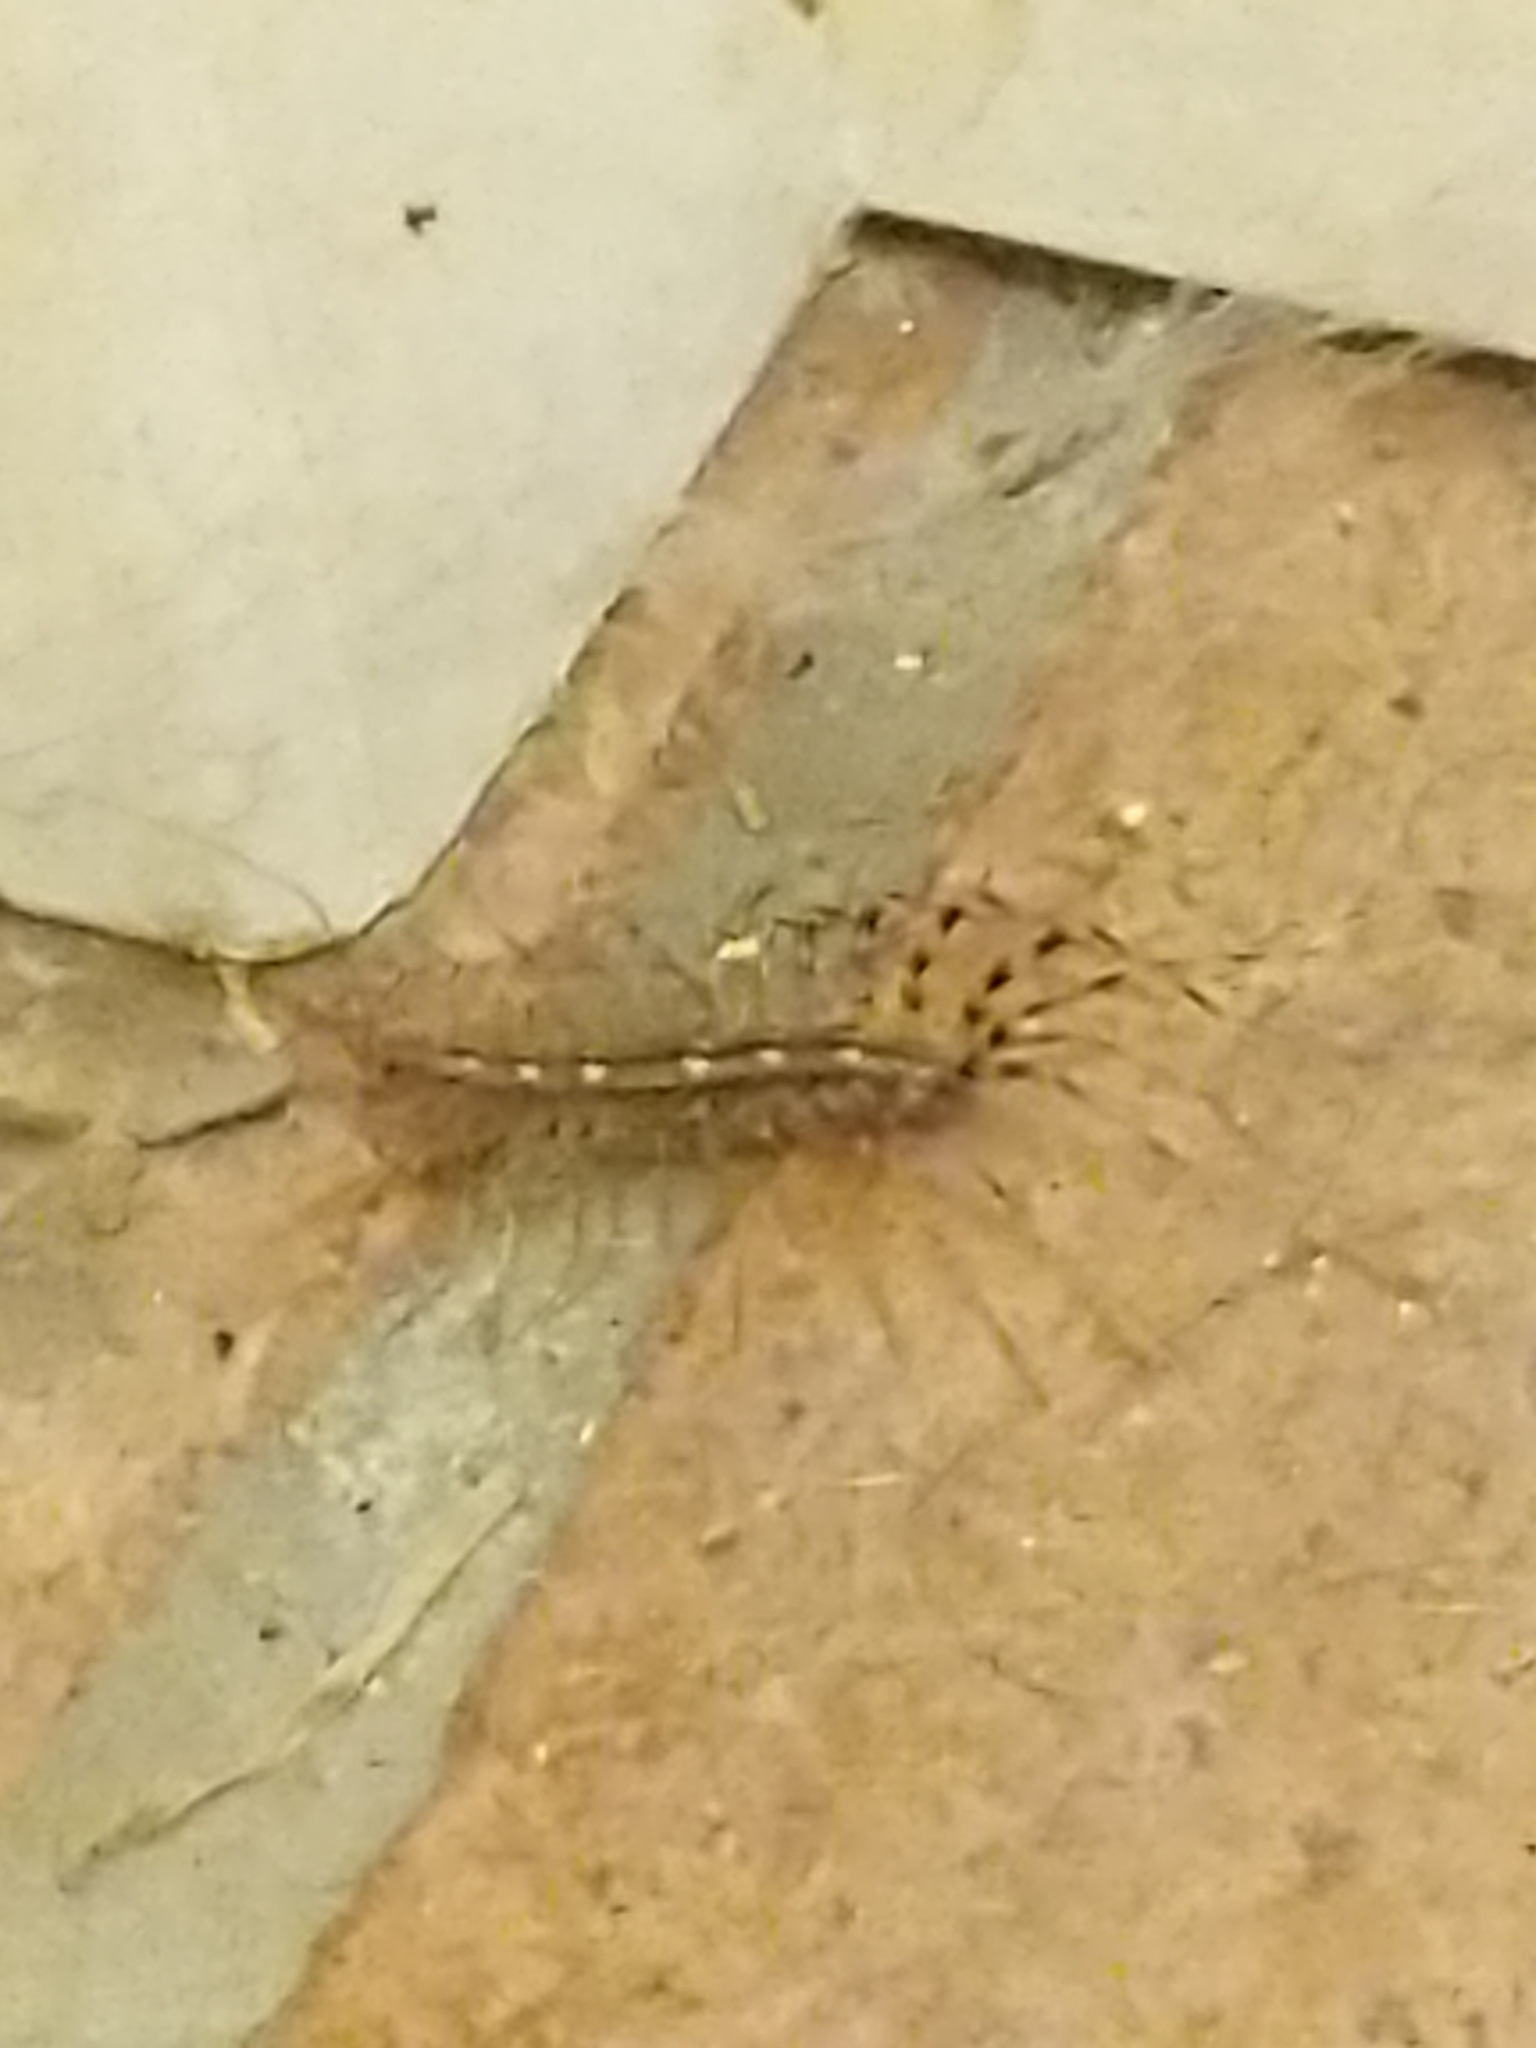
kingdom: Animalia
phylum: Arthropoda
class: Chilopoda
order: Scutigeromorpha
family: Scutigeridae
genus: Scutigera
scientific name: Scutigera coleoptrata
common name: House centipede
